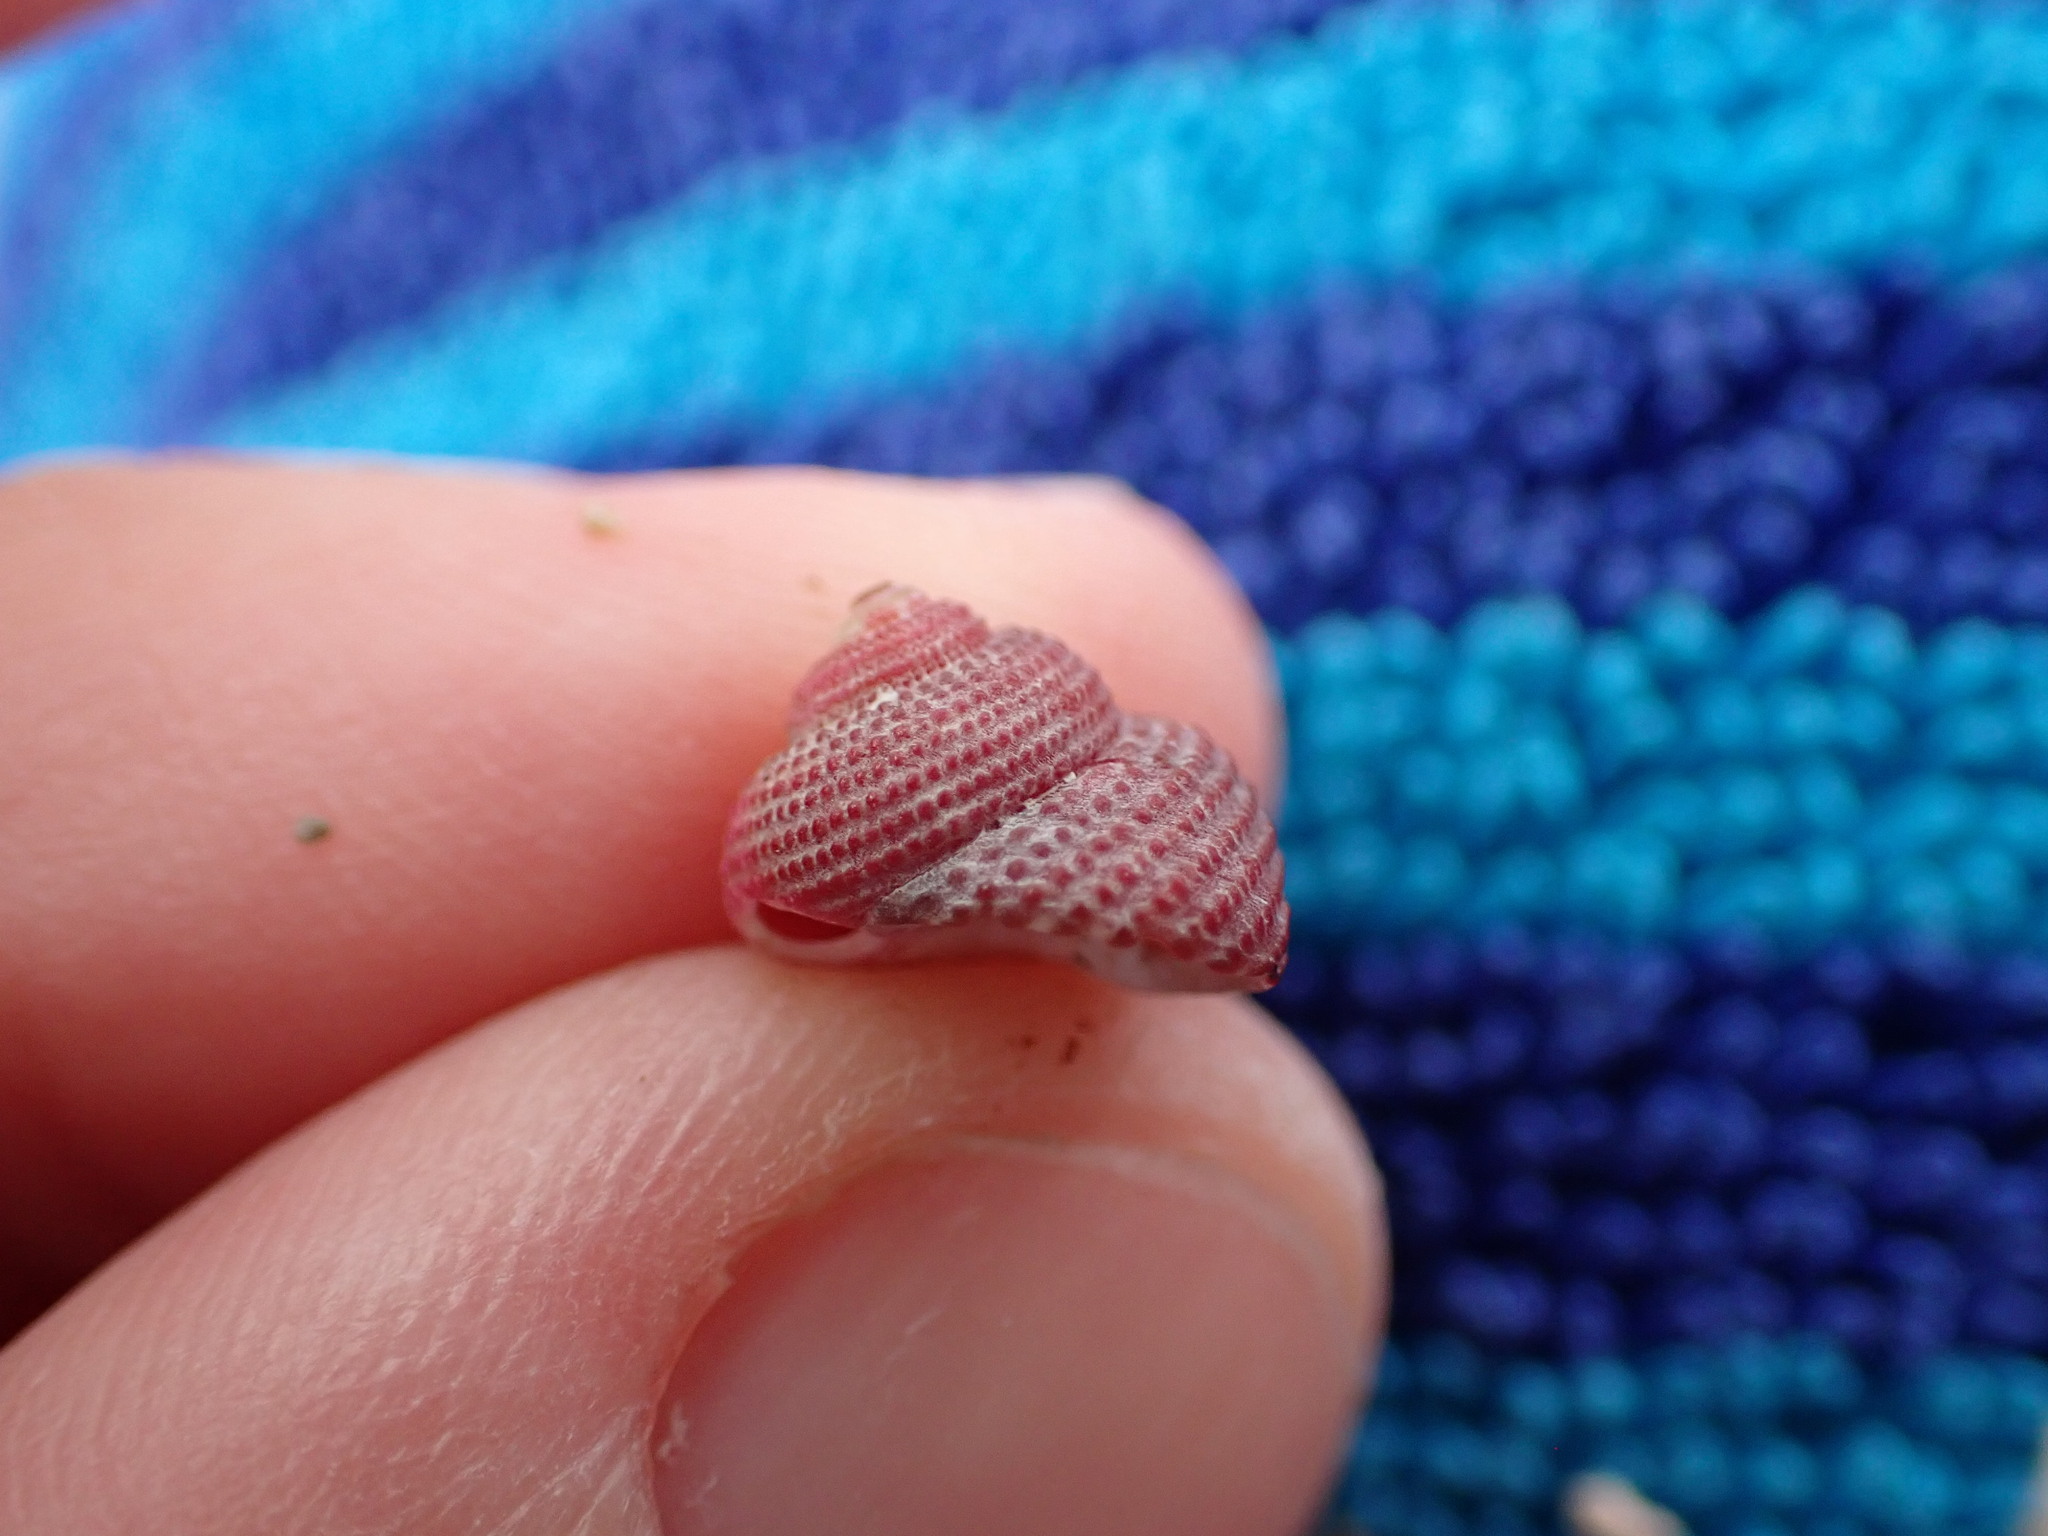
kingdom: Animalia
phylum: Mollusca
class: Gastropoda
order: Trochida
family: Trochidae
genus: Clanculus
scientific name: Clanculus corallinus
